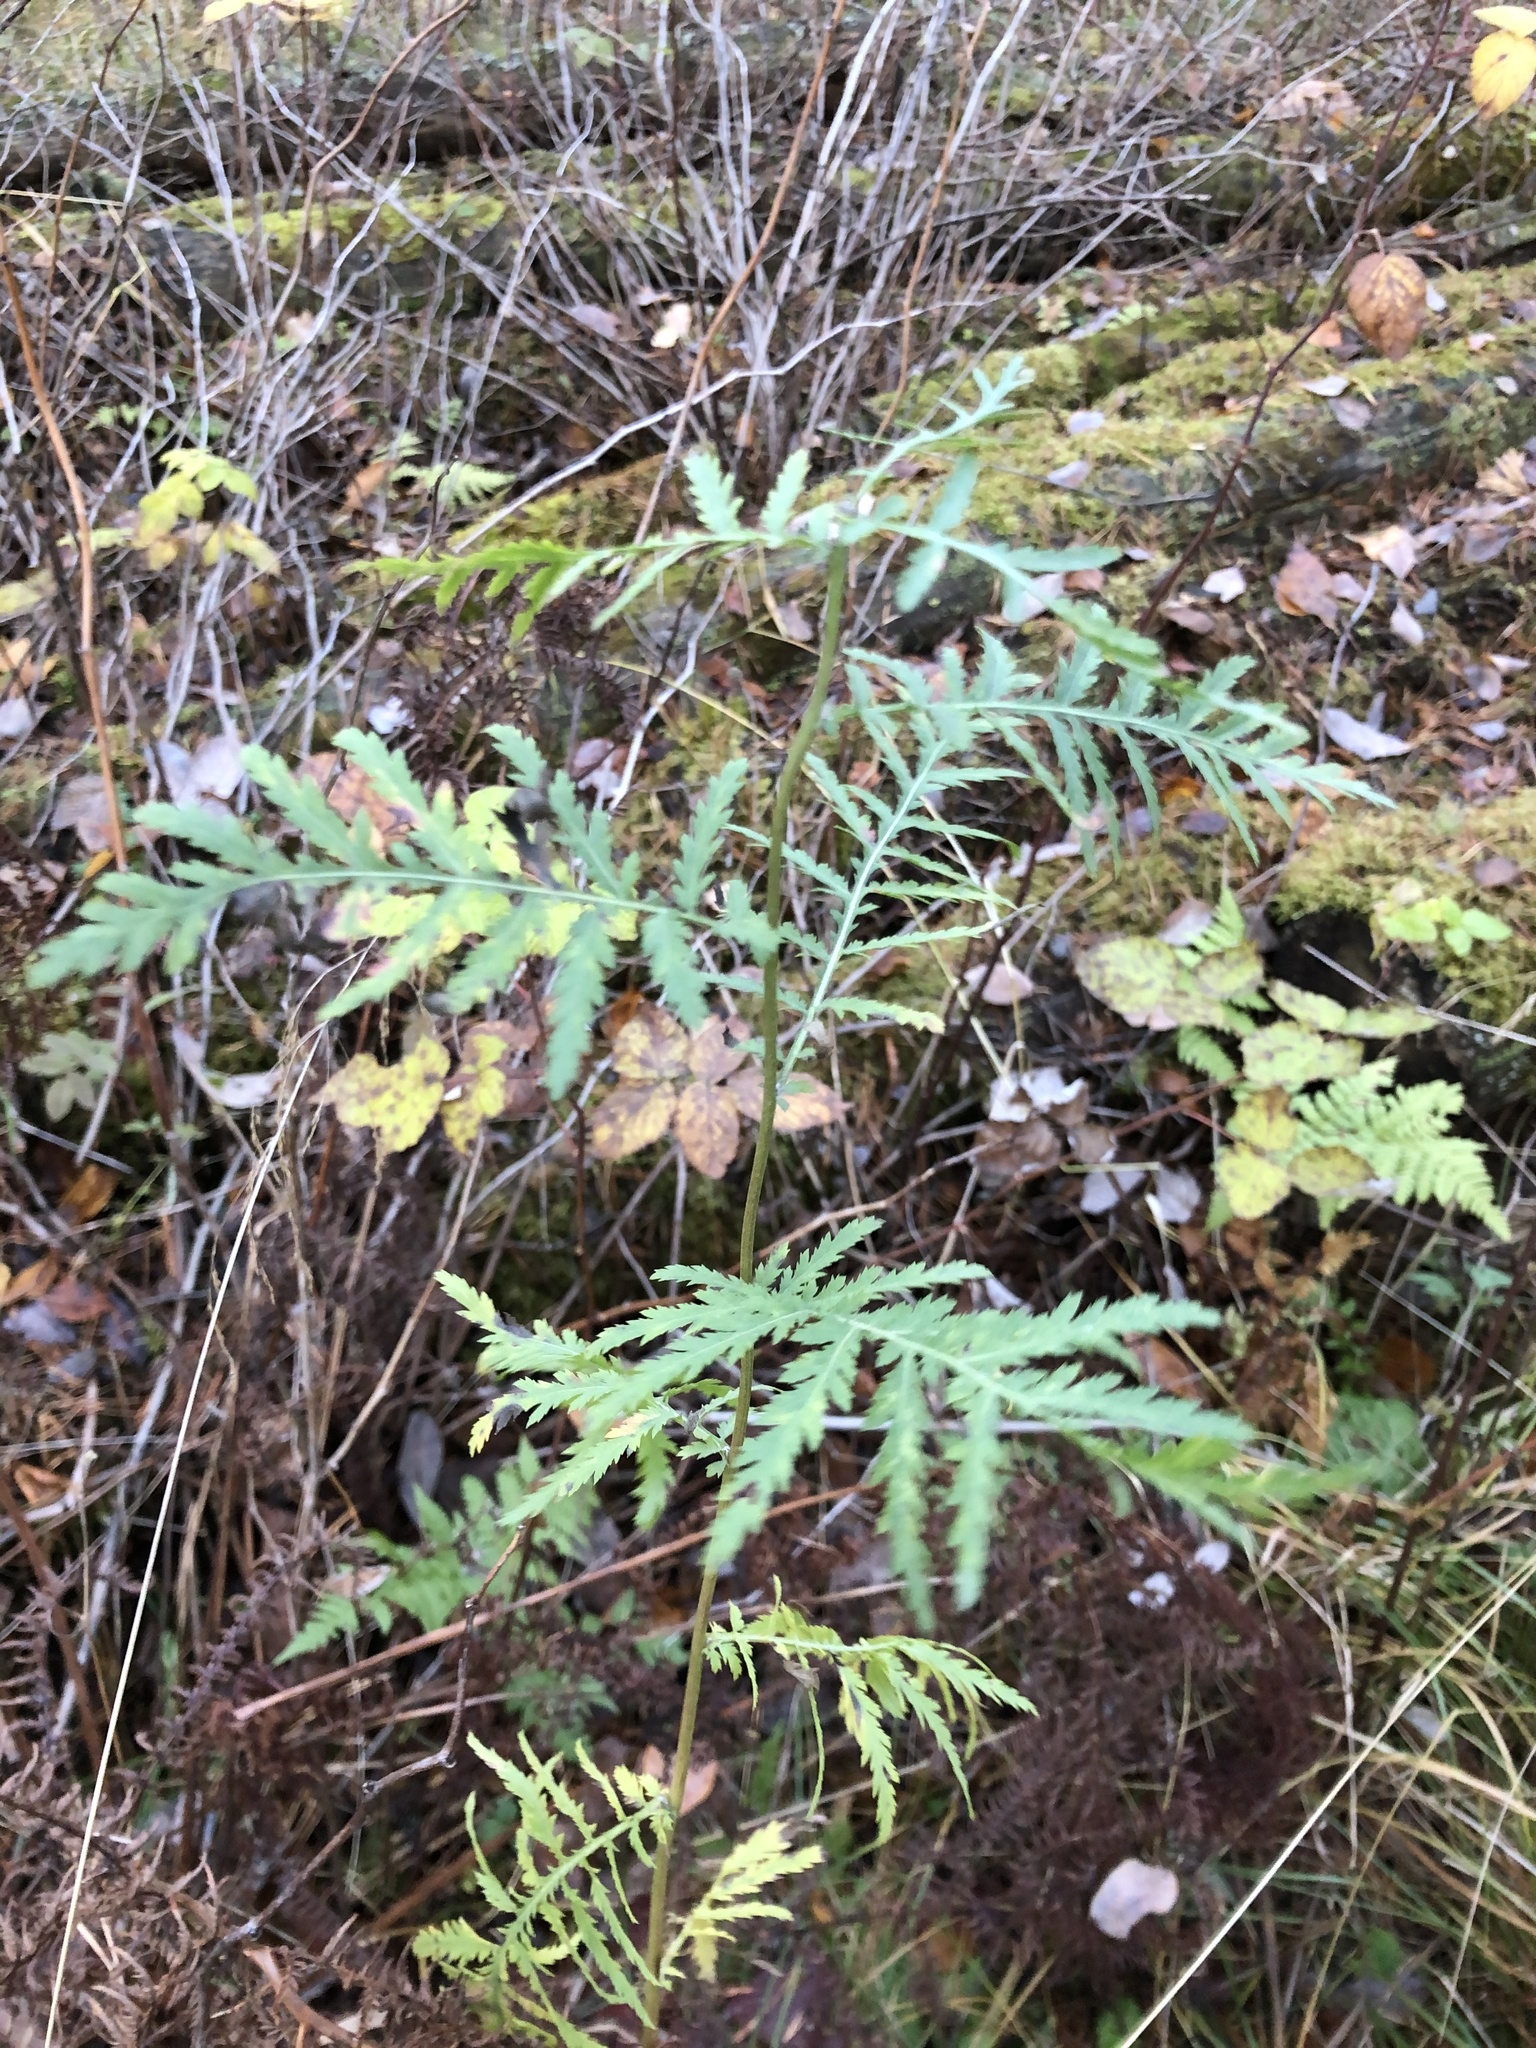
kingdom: Plantae
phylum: Tracheophyta
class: Magnoliopsida
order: Asterales
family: Asteraceae
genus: Tanacetum
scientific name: Tanacetum vulgare
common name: Common tansy
